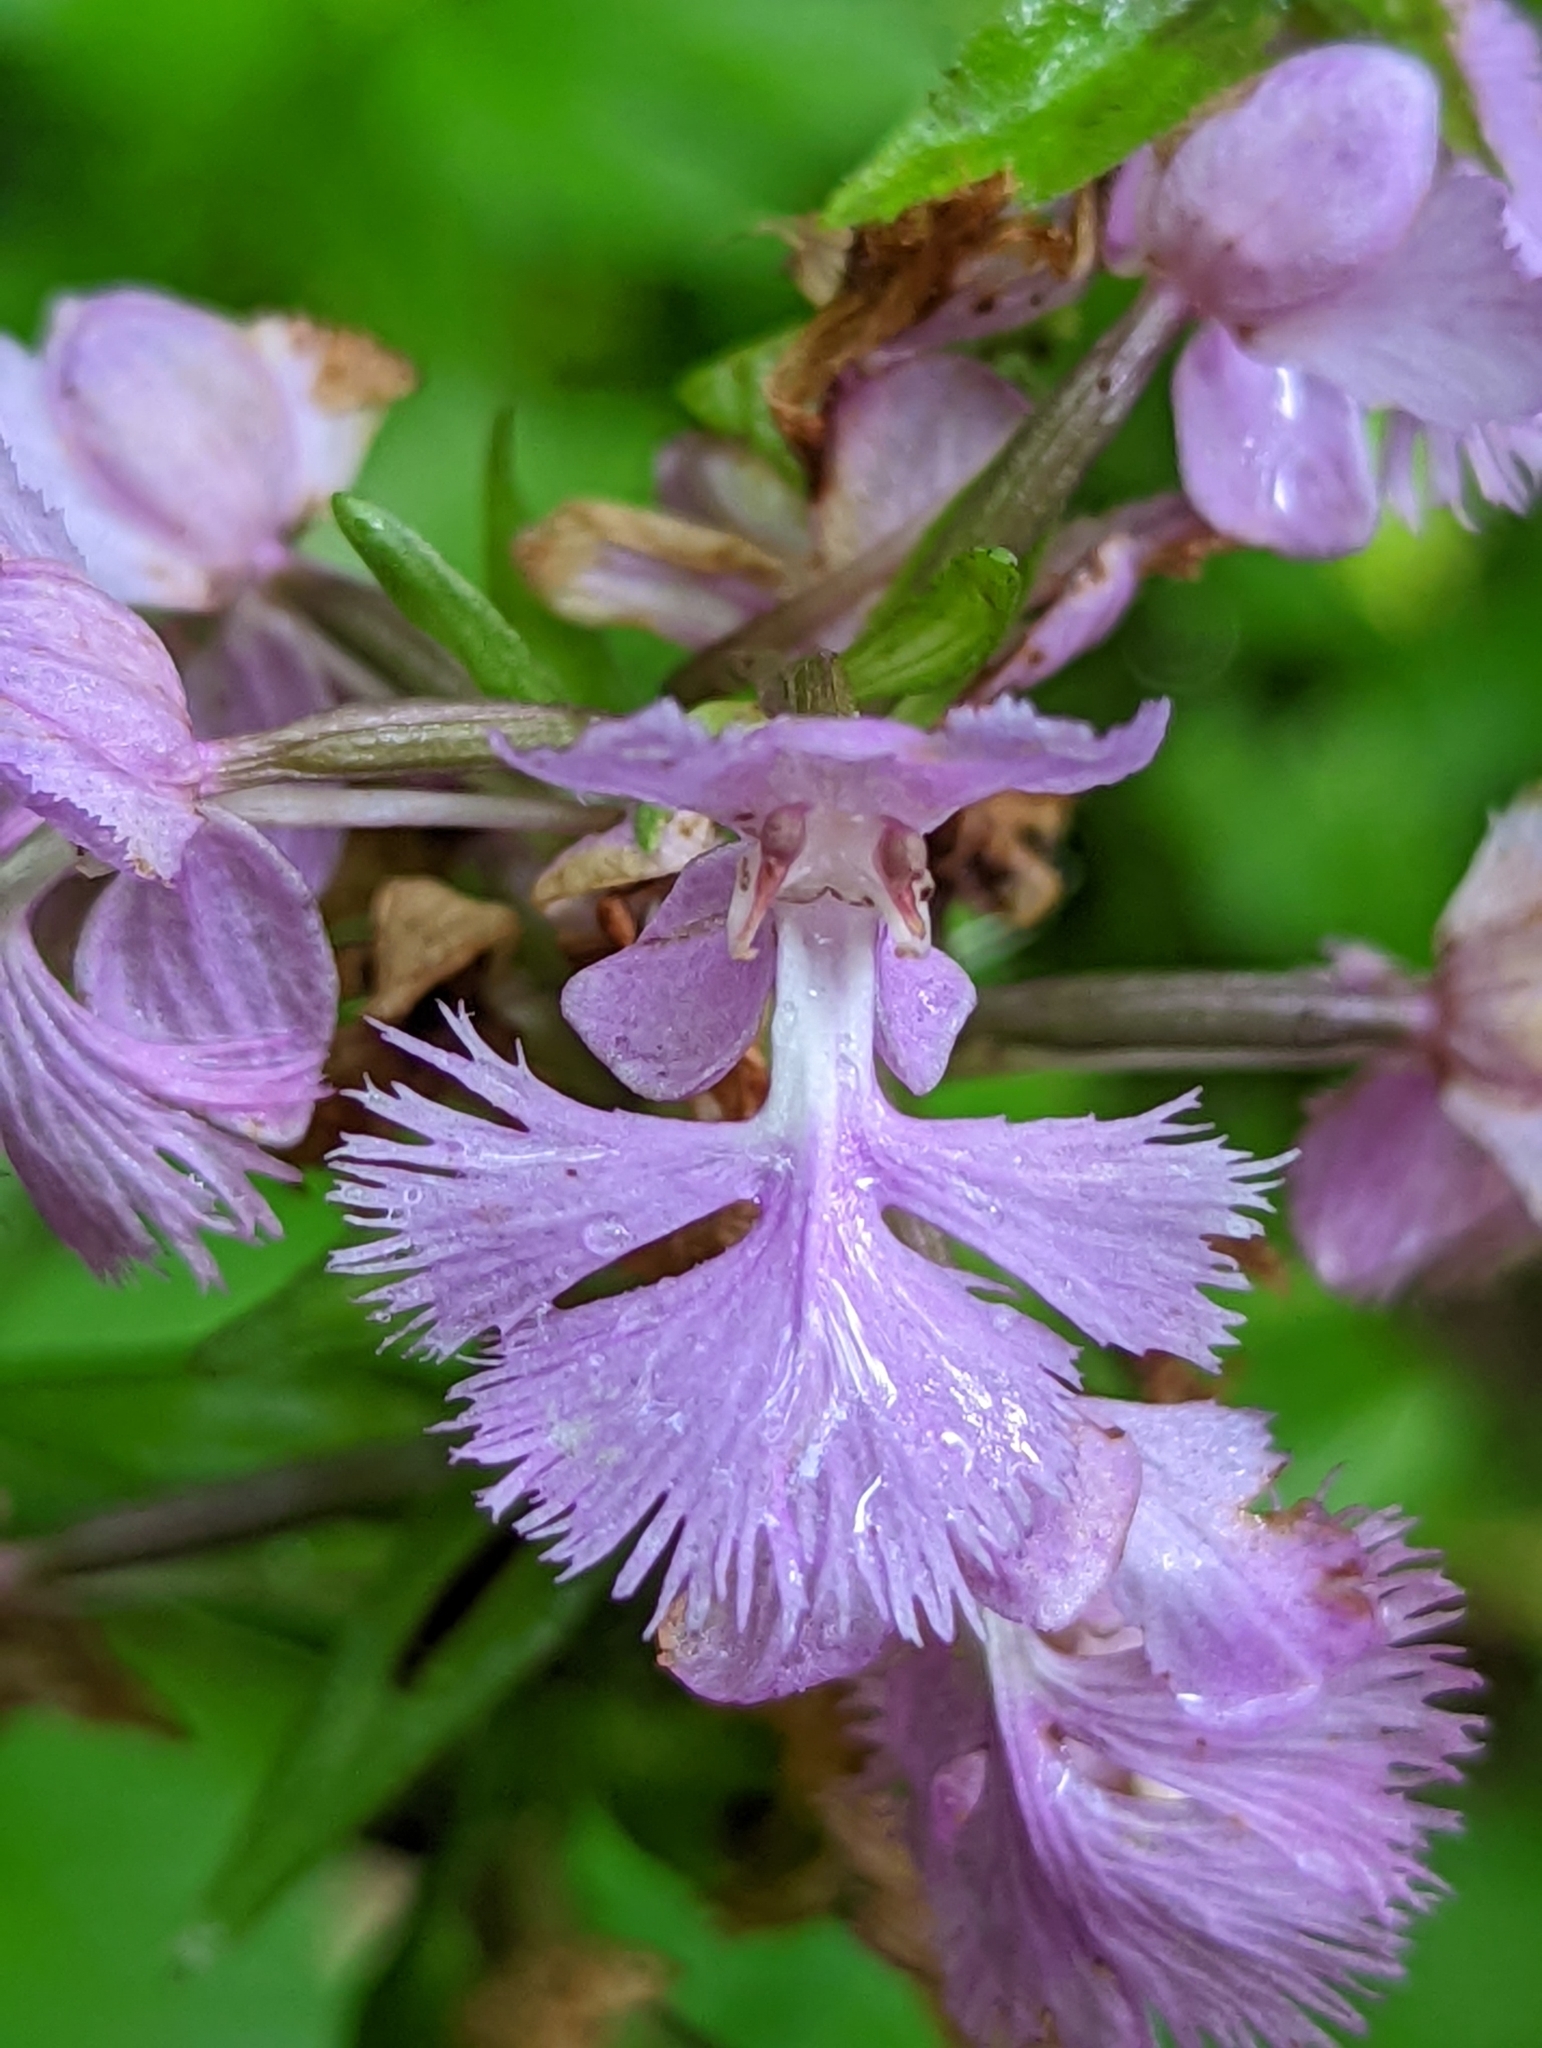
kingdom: Plantae
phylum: Tracheophyta
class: Liliopsida
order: Asparagales
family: Orchidaceae
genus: Platanthera
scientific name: Platanthera grandiflora
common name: Greater purple fringed orchid
